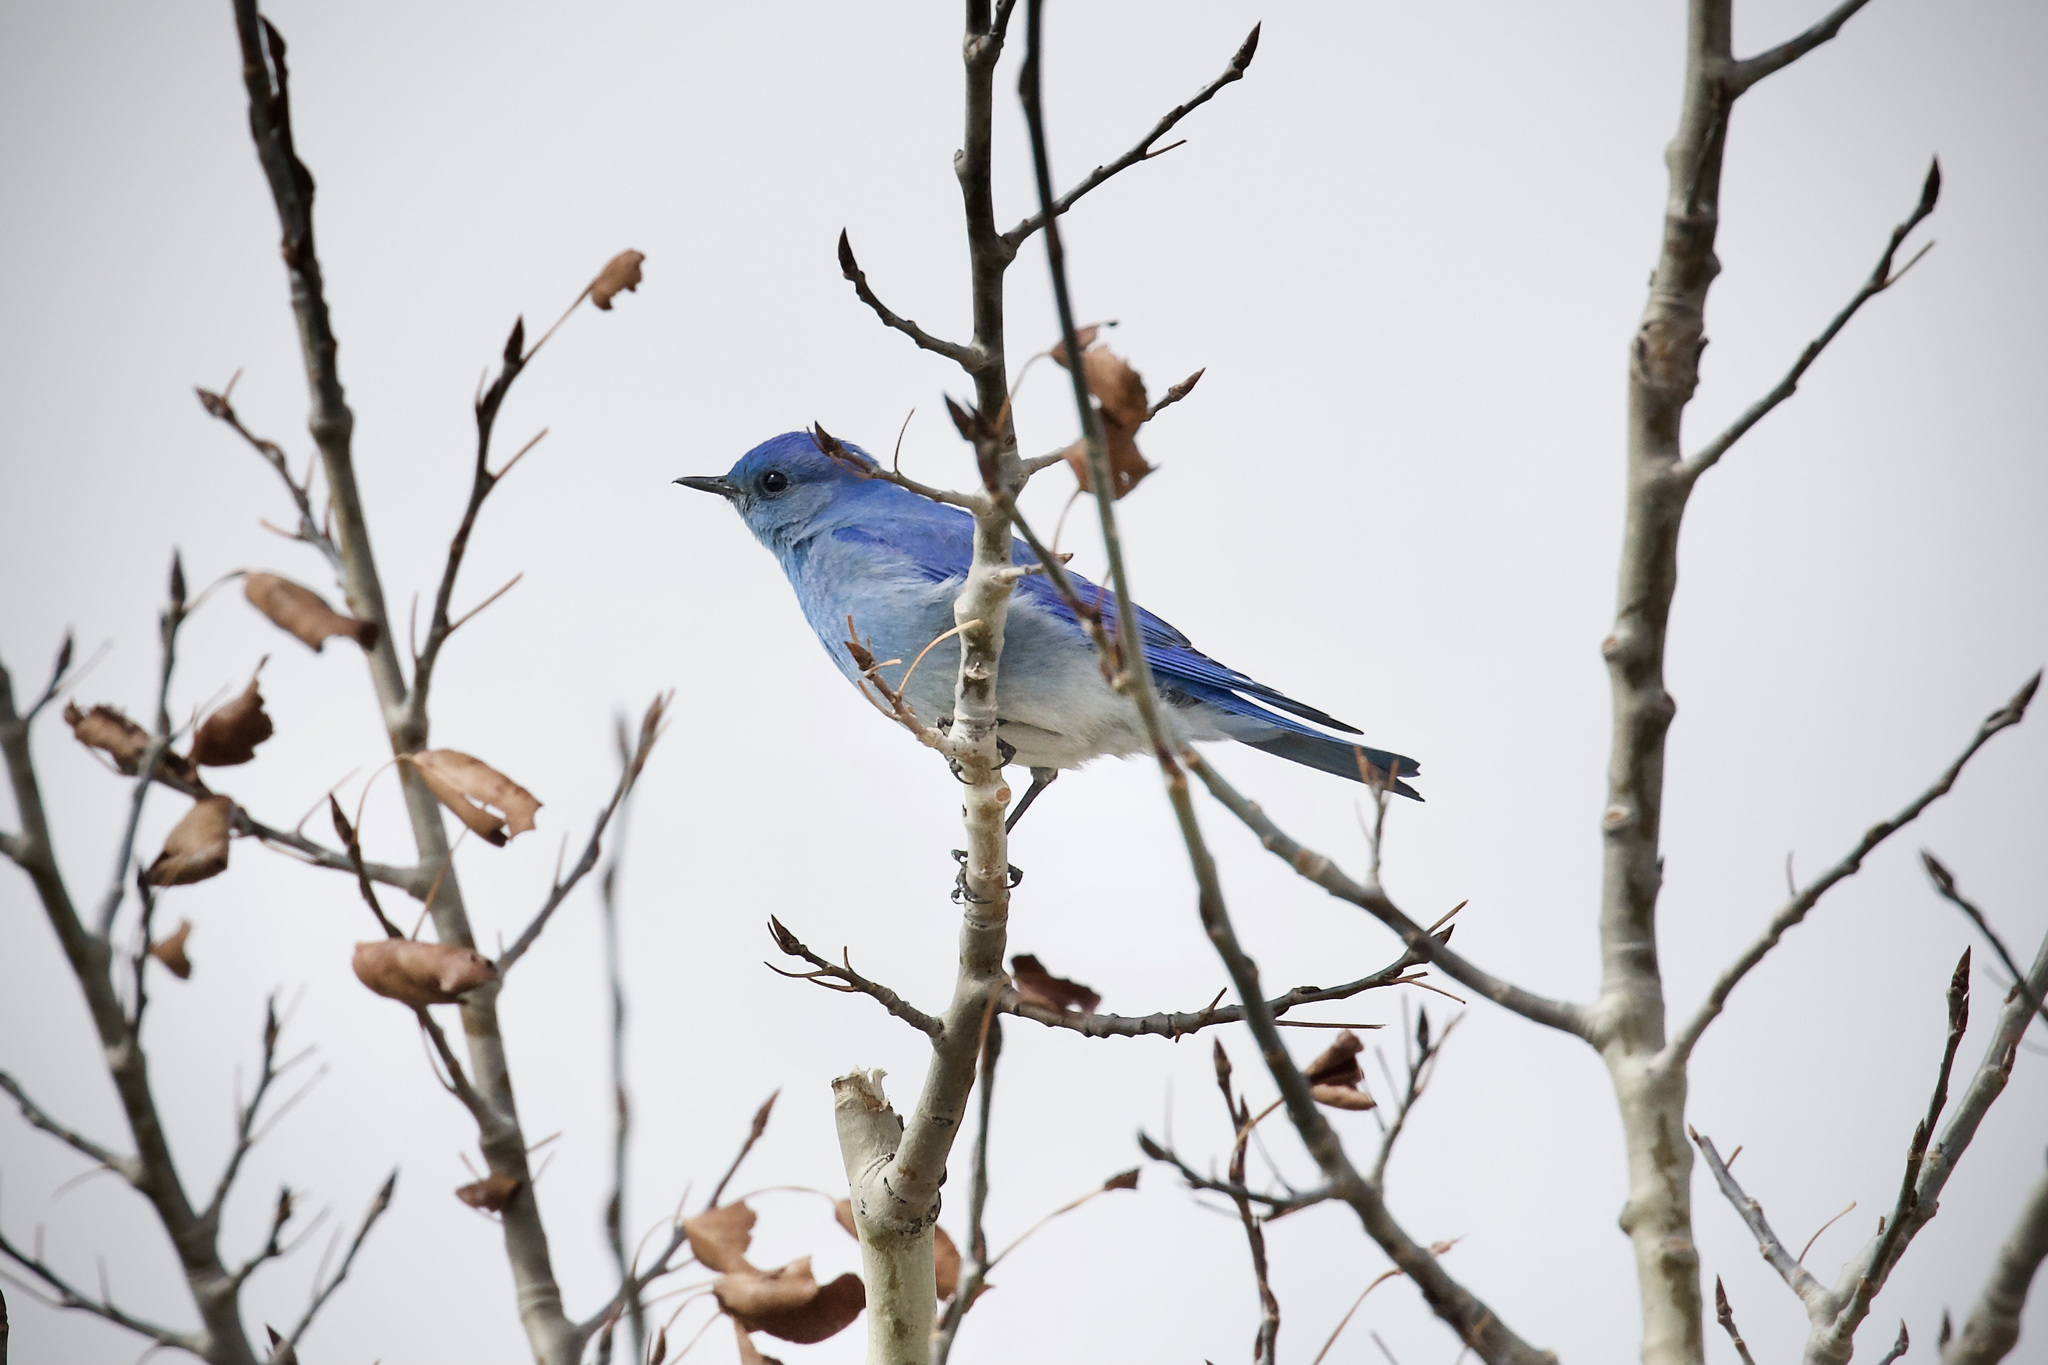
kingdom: Animalia
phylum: Chordata
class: Aves
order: Passeriformes
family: Turdidae
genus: Sialia
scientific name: Sialia currucoides
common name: Mountain bluebird
